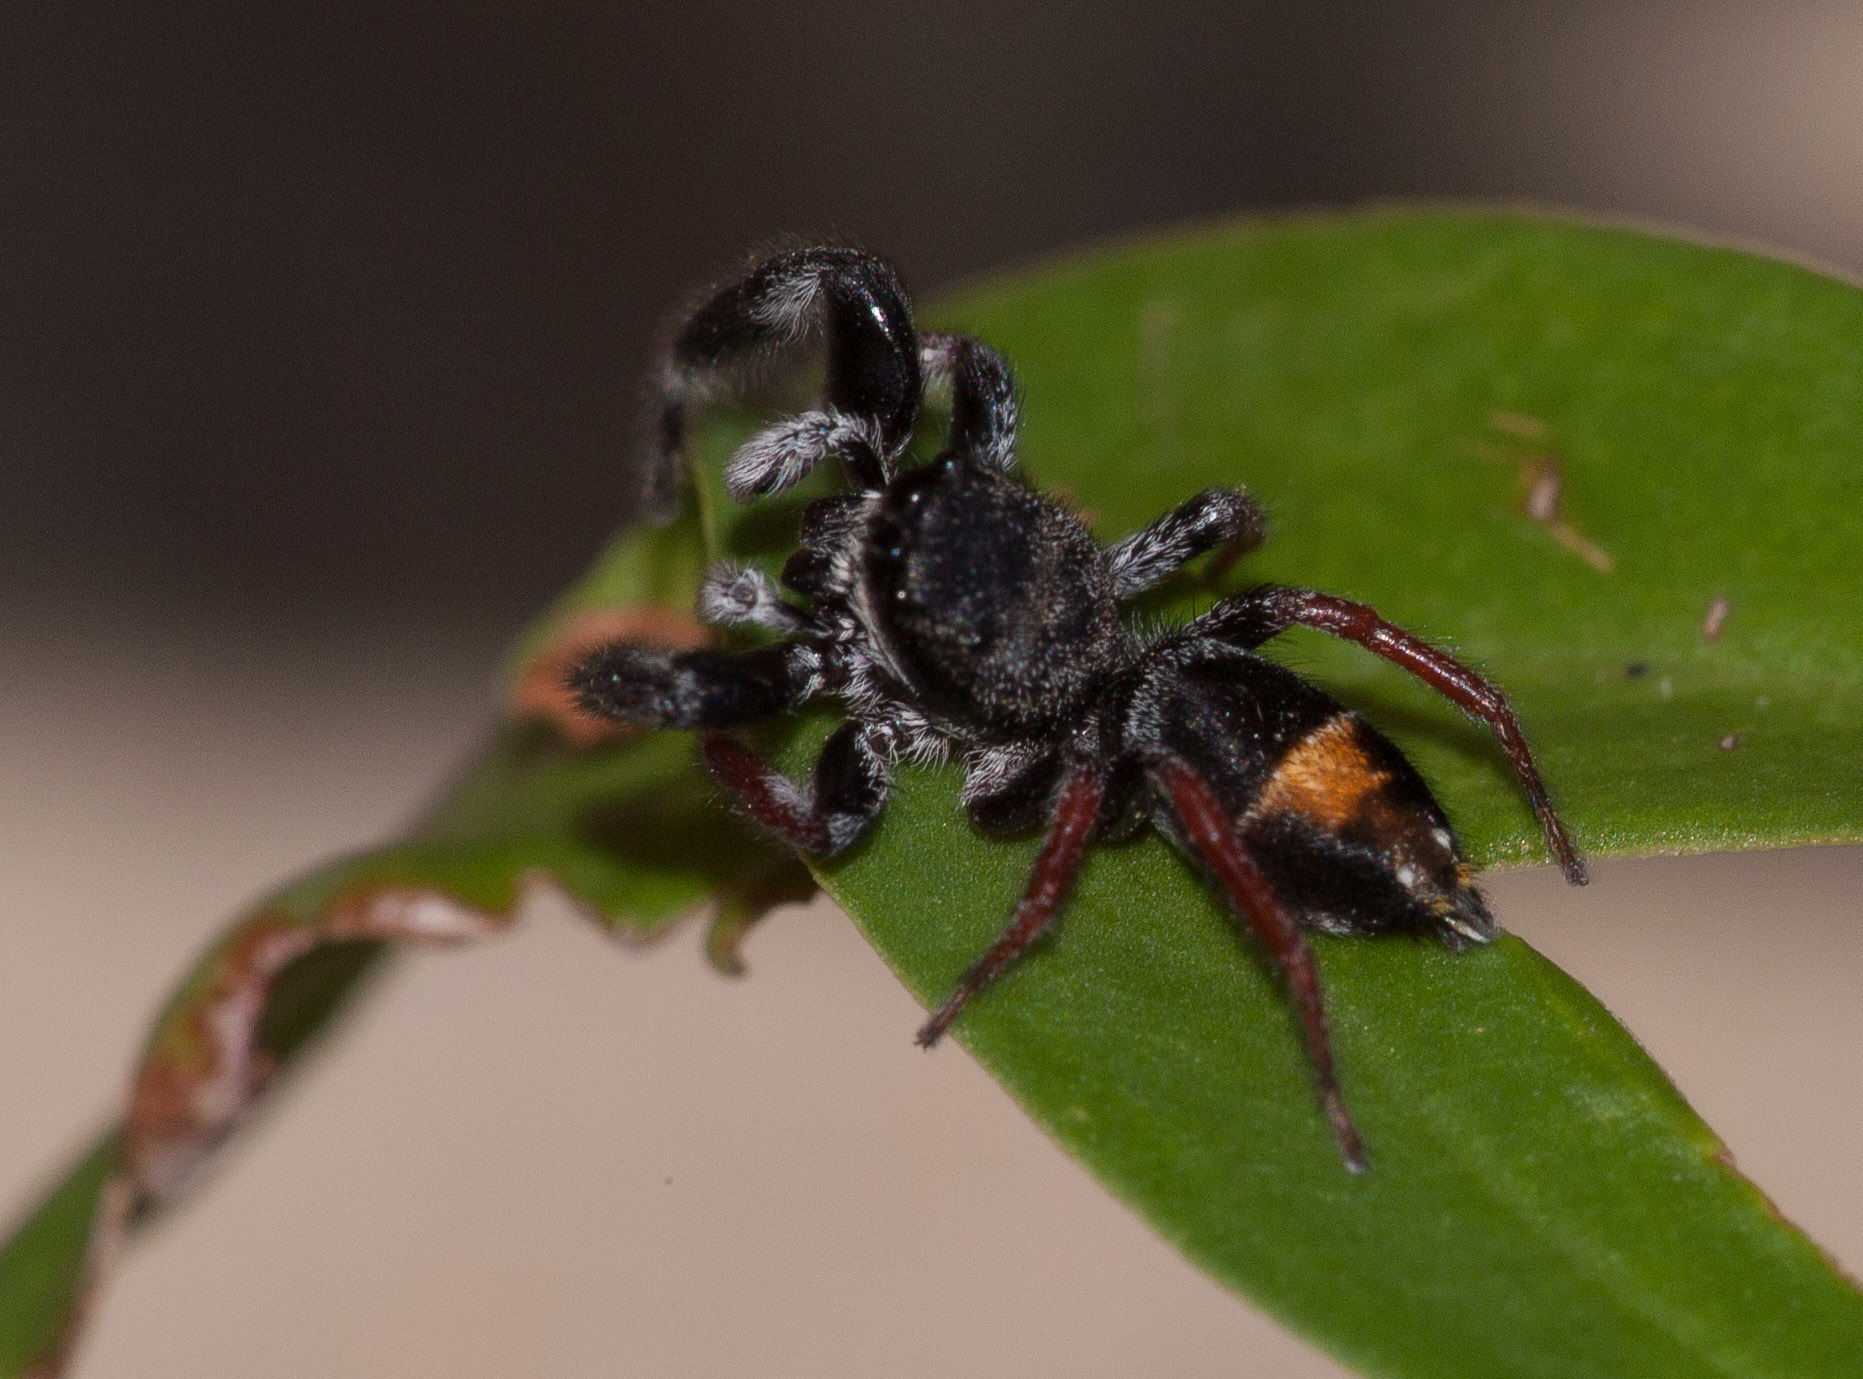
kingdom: Animalia
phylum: Arthropoda
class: Arachnida
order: Araneae
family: Salticidae
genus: Apricia
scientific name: Apricia jovialis
